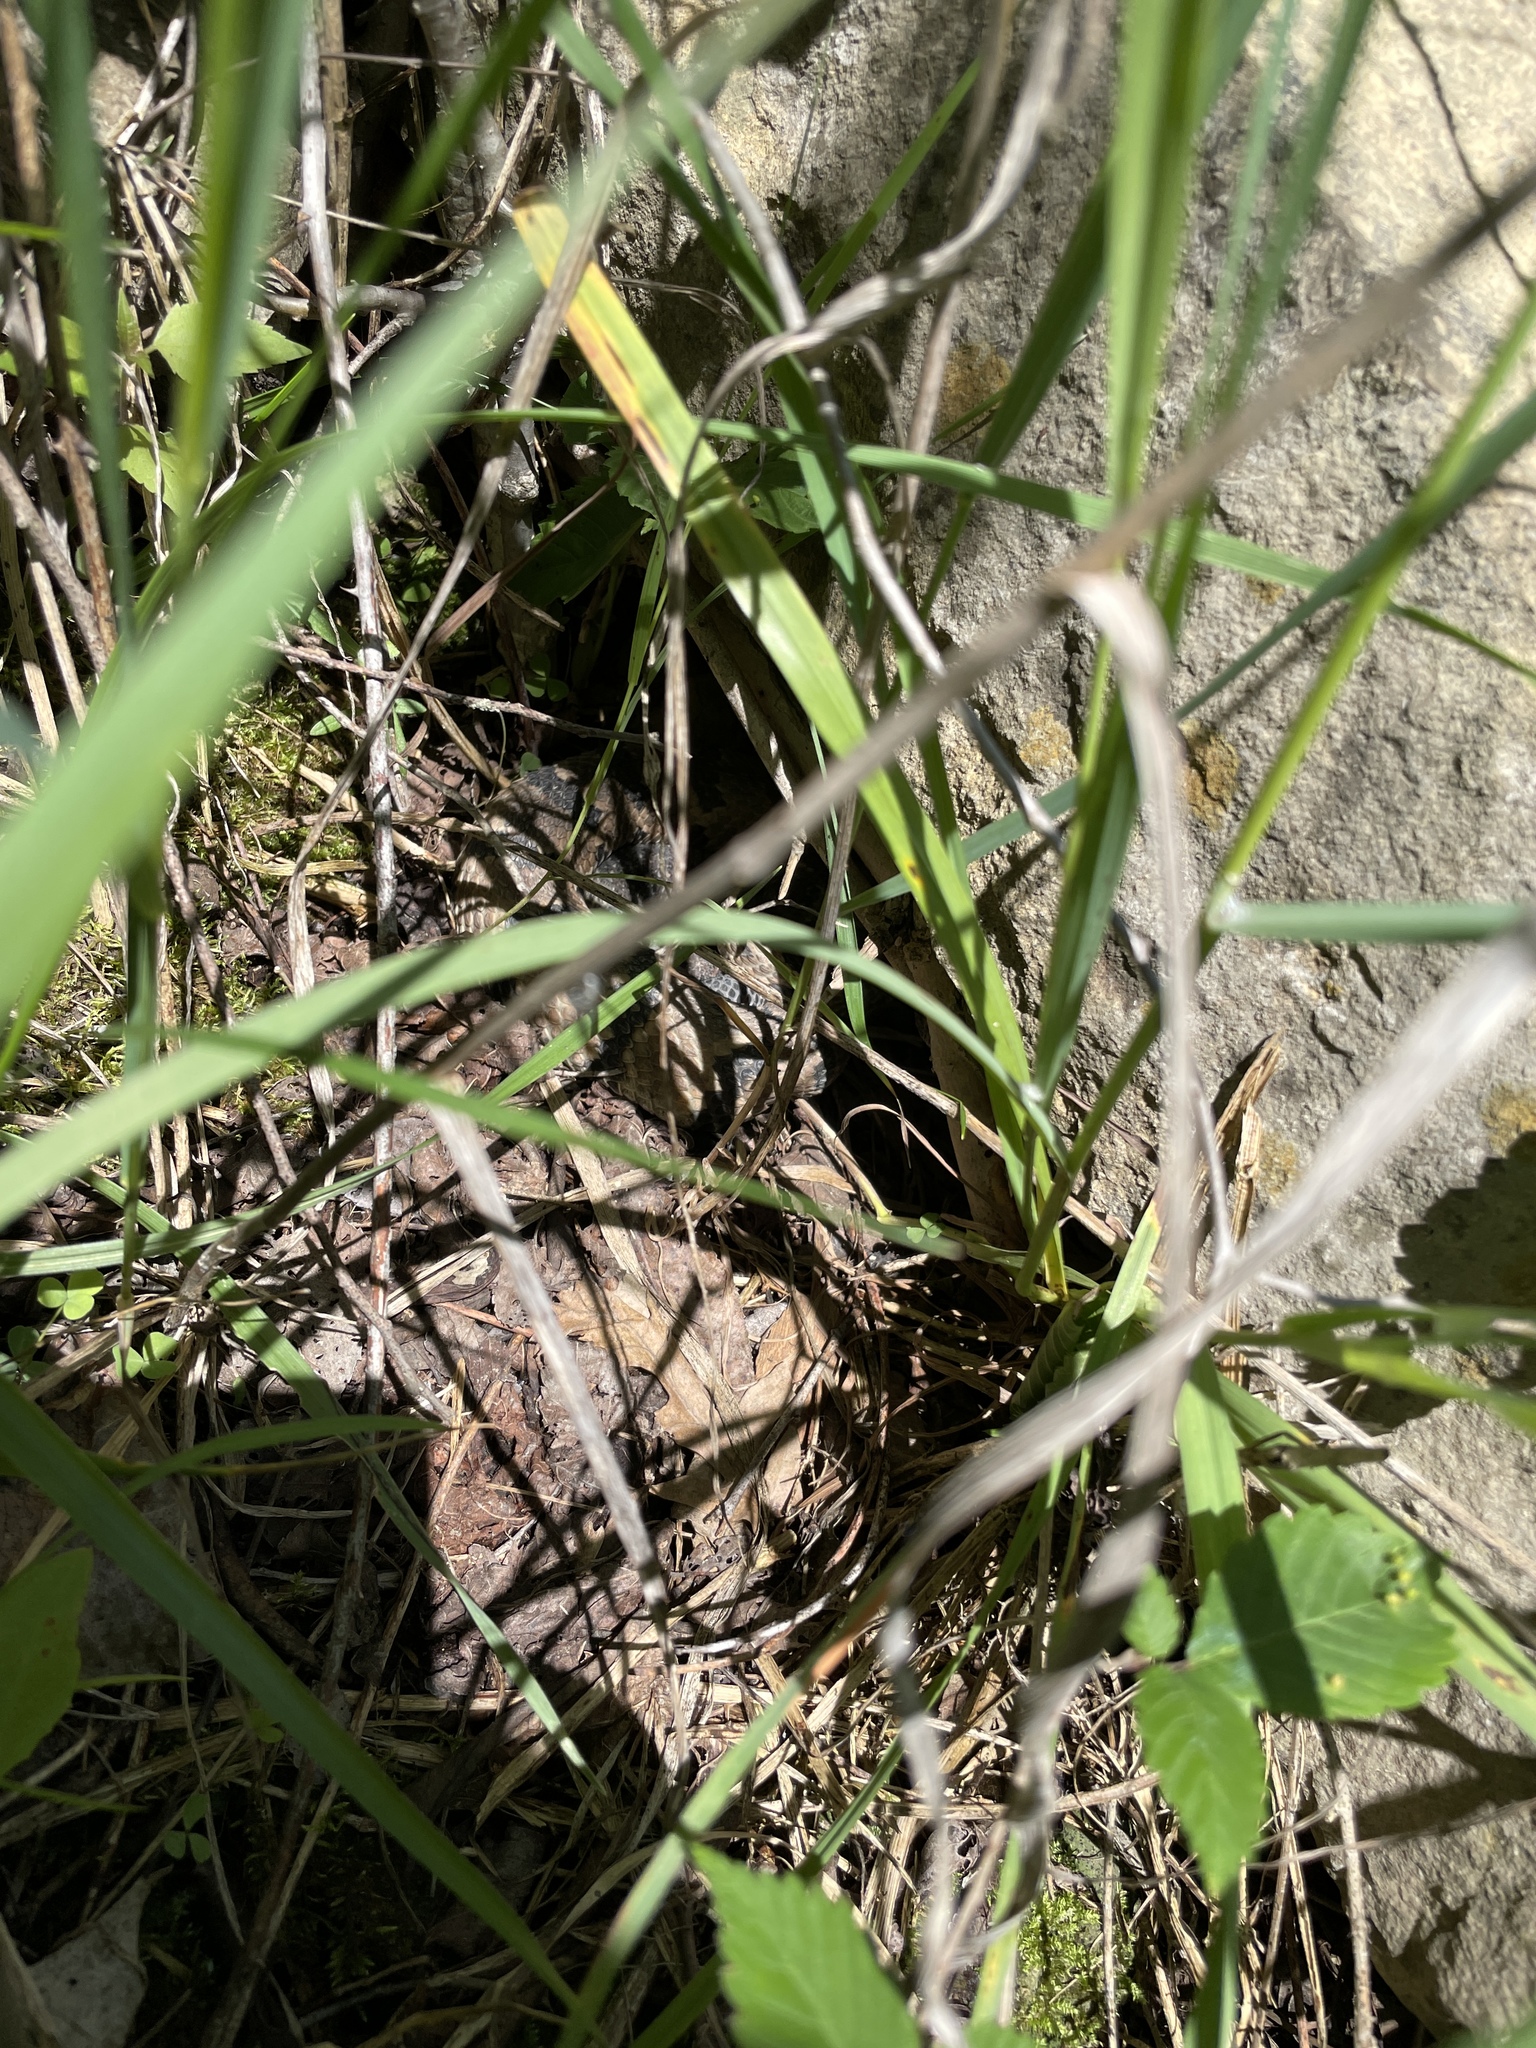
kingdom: Animalia
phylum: Chordata
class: Squamata
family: Viperidae
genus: Crotalus
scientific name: Crotalus horridus
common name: Timber rattlesnake
